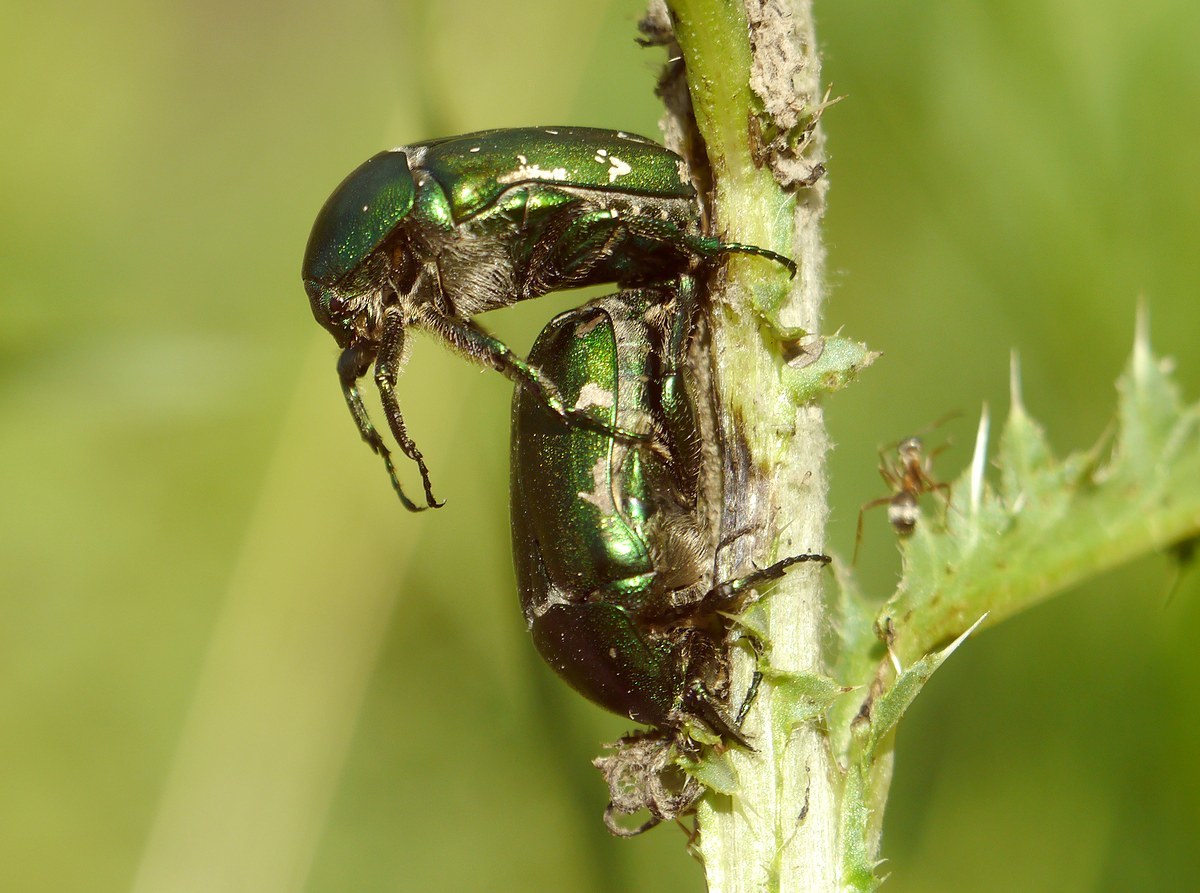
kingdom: Animalia
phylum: Arthropoda
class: Insecta
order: Coleoptera
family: Scarabaeidae
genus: Protaetia
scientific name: Protaetia ungarica
